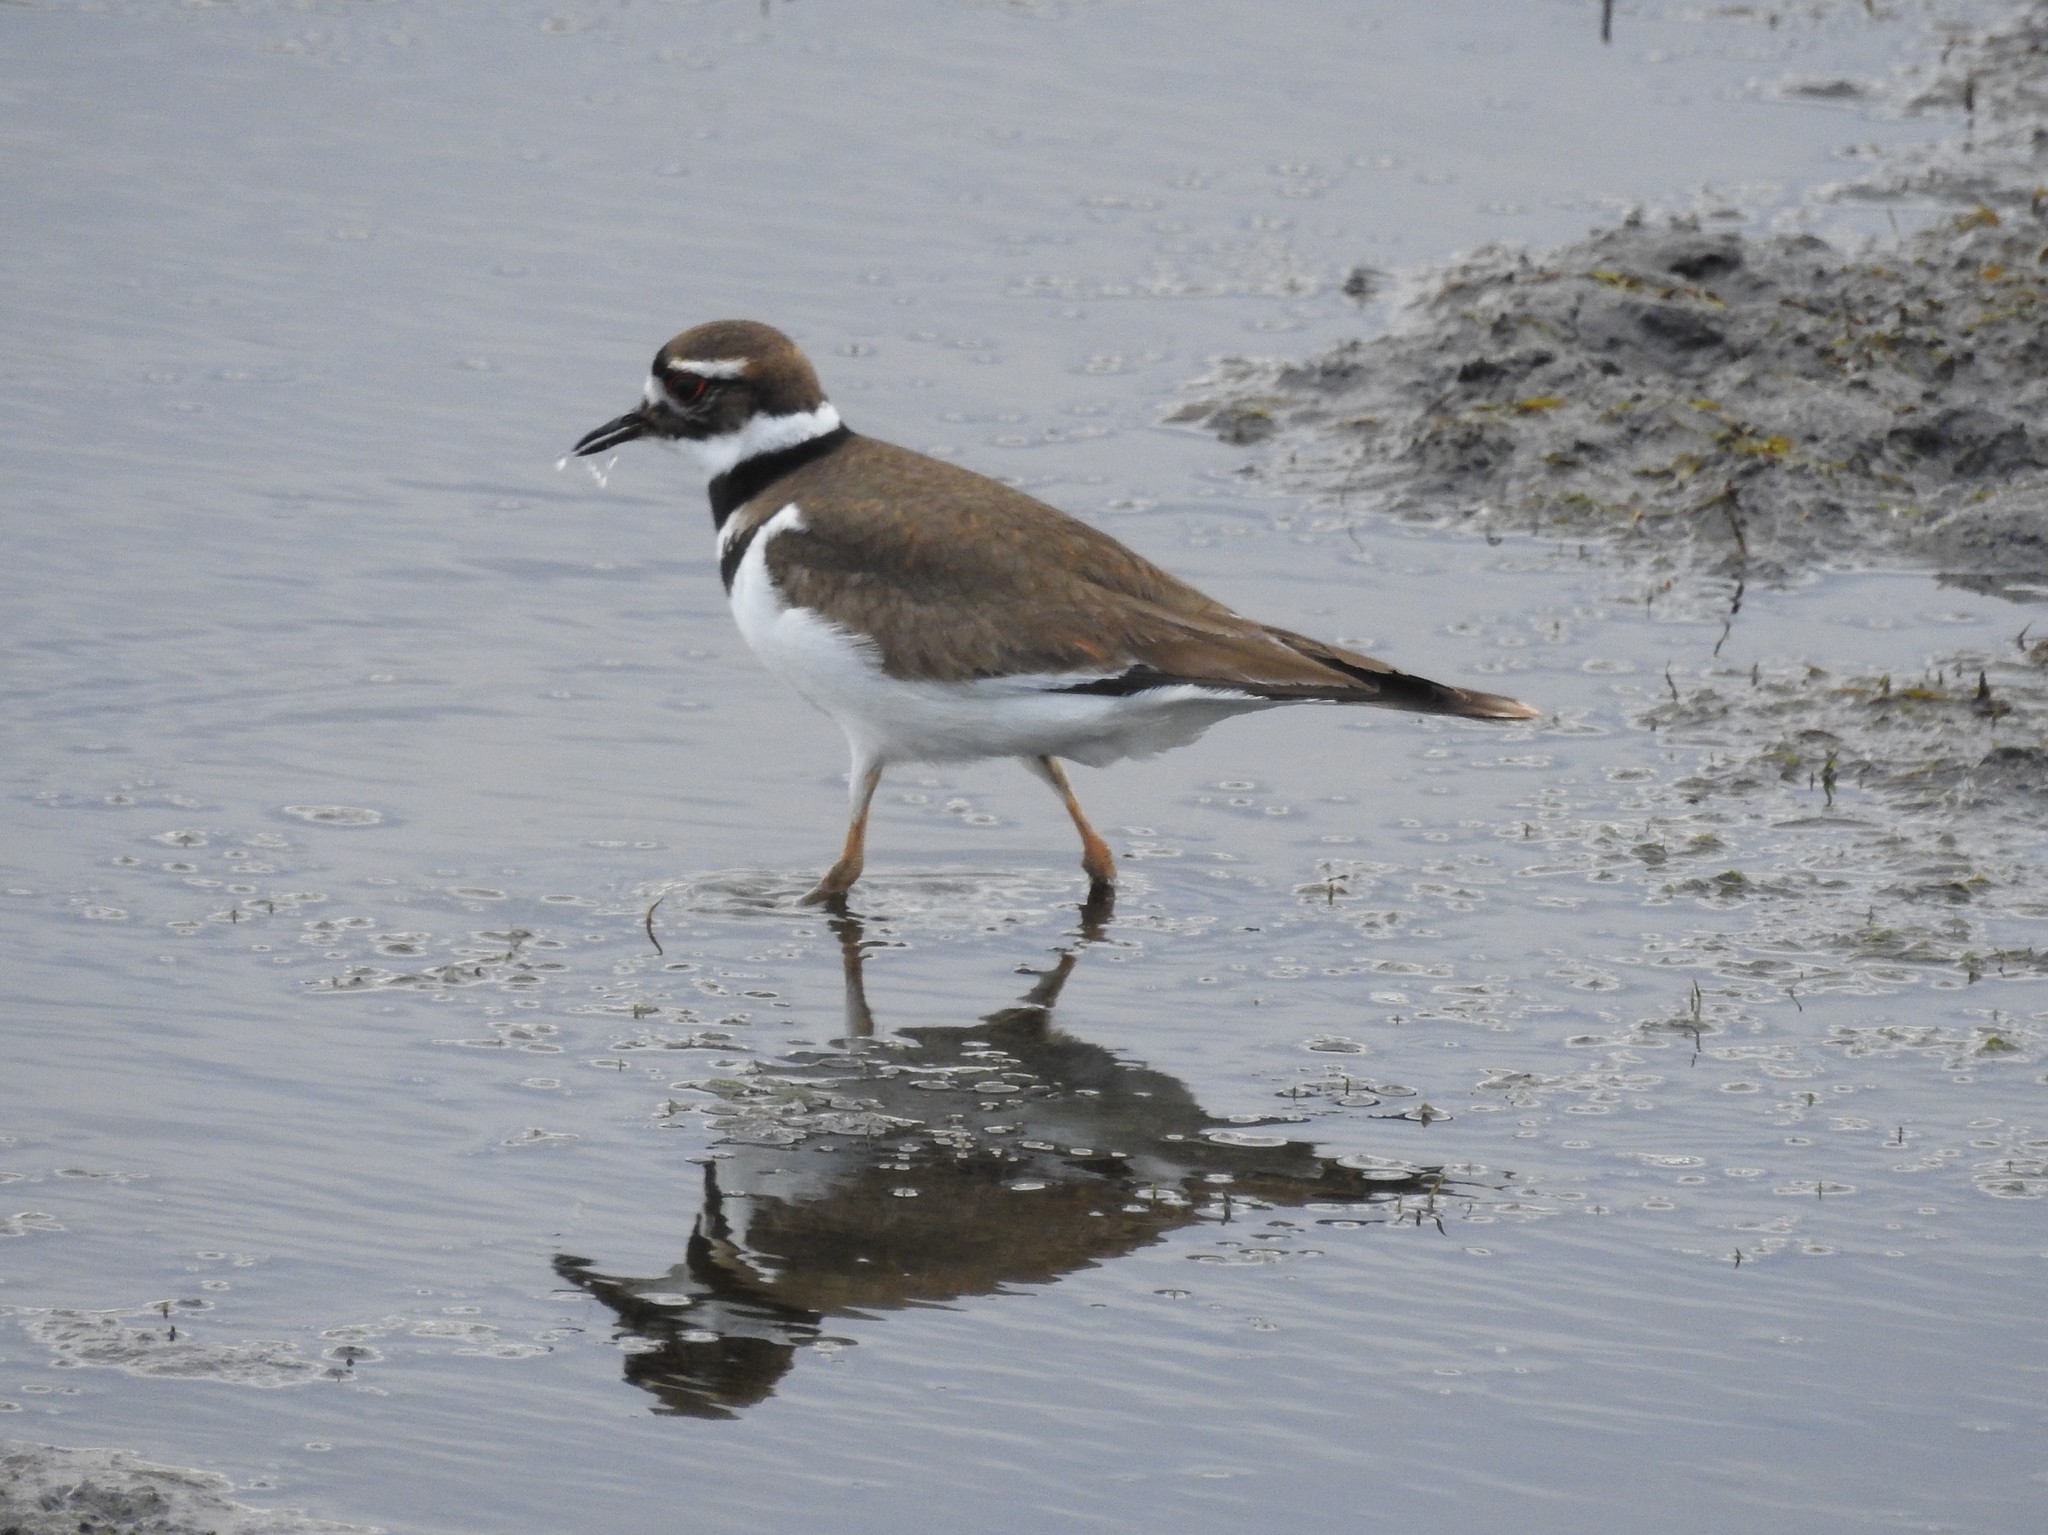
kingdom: Animalia
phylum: Chordata
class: Aves
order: Charadriiformes
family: Charadriidae
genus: Charadrius
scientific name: Charadrius vociferus
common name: Killdeer
